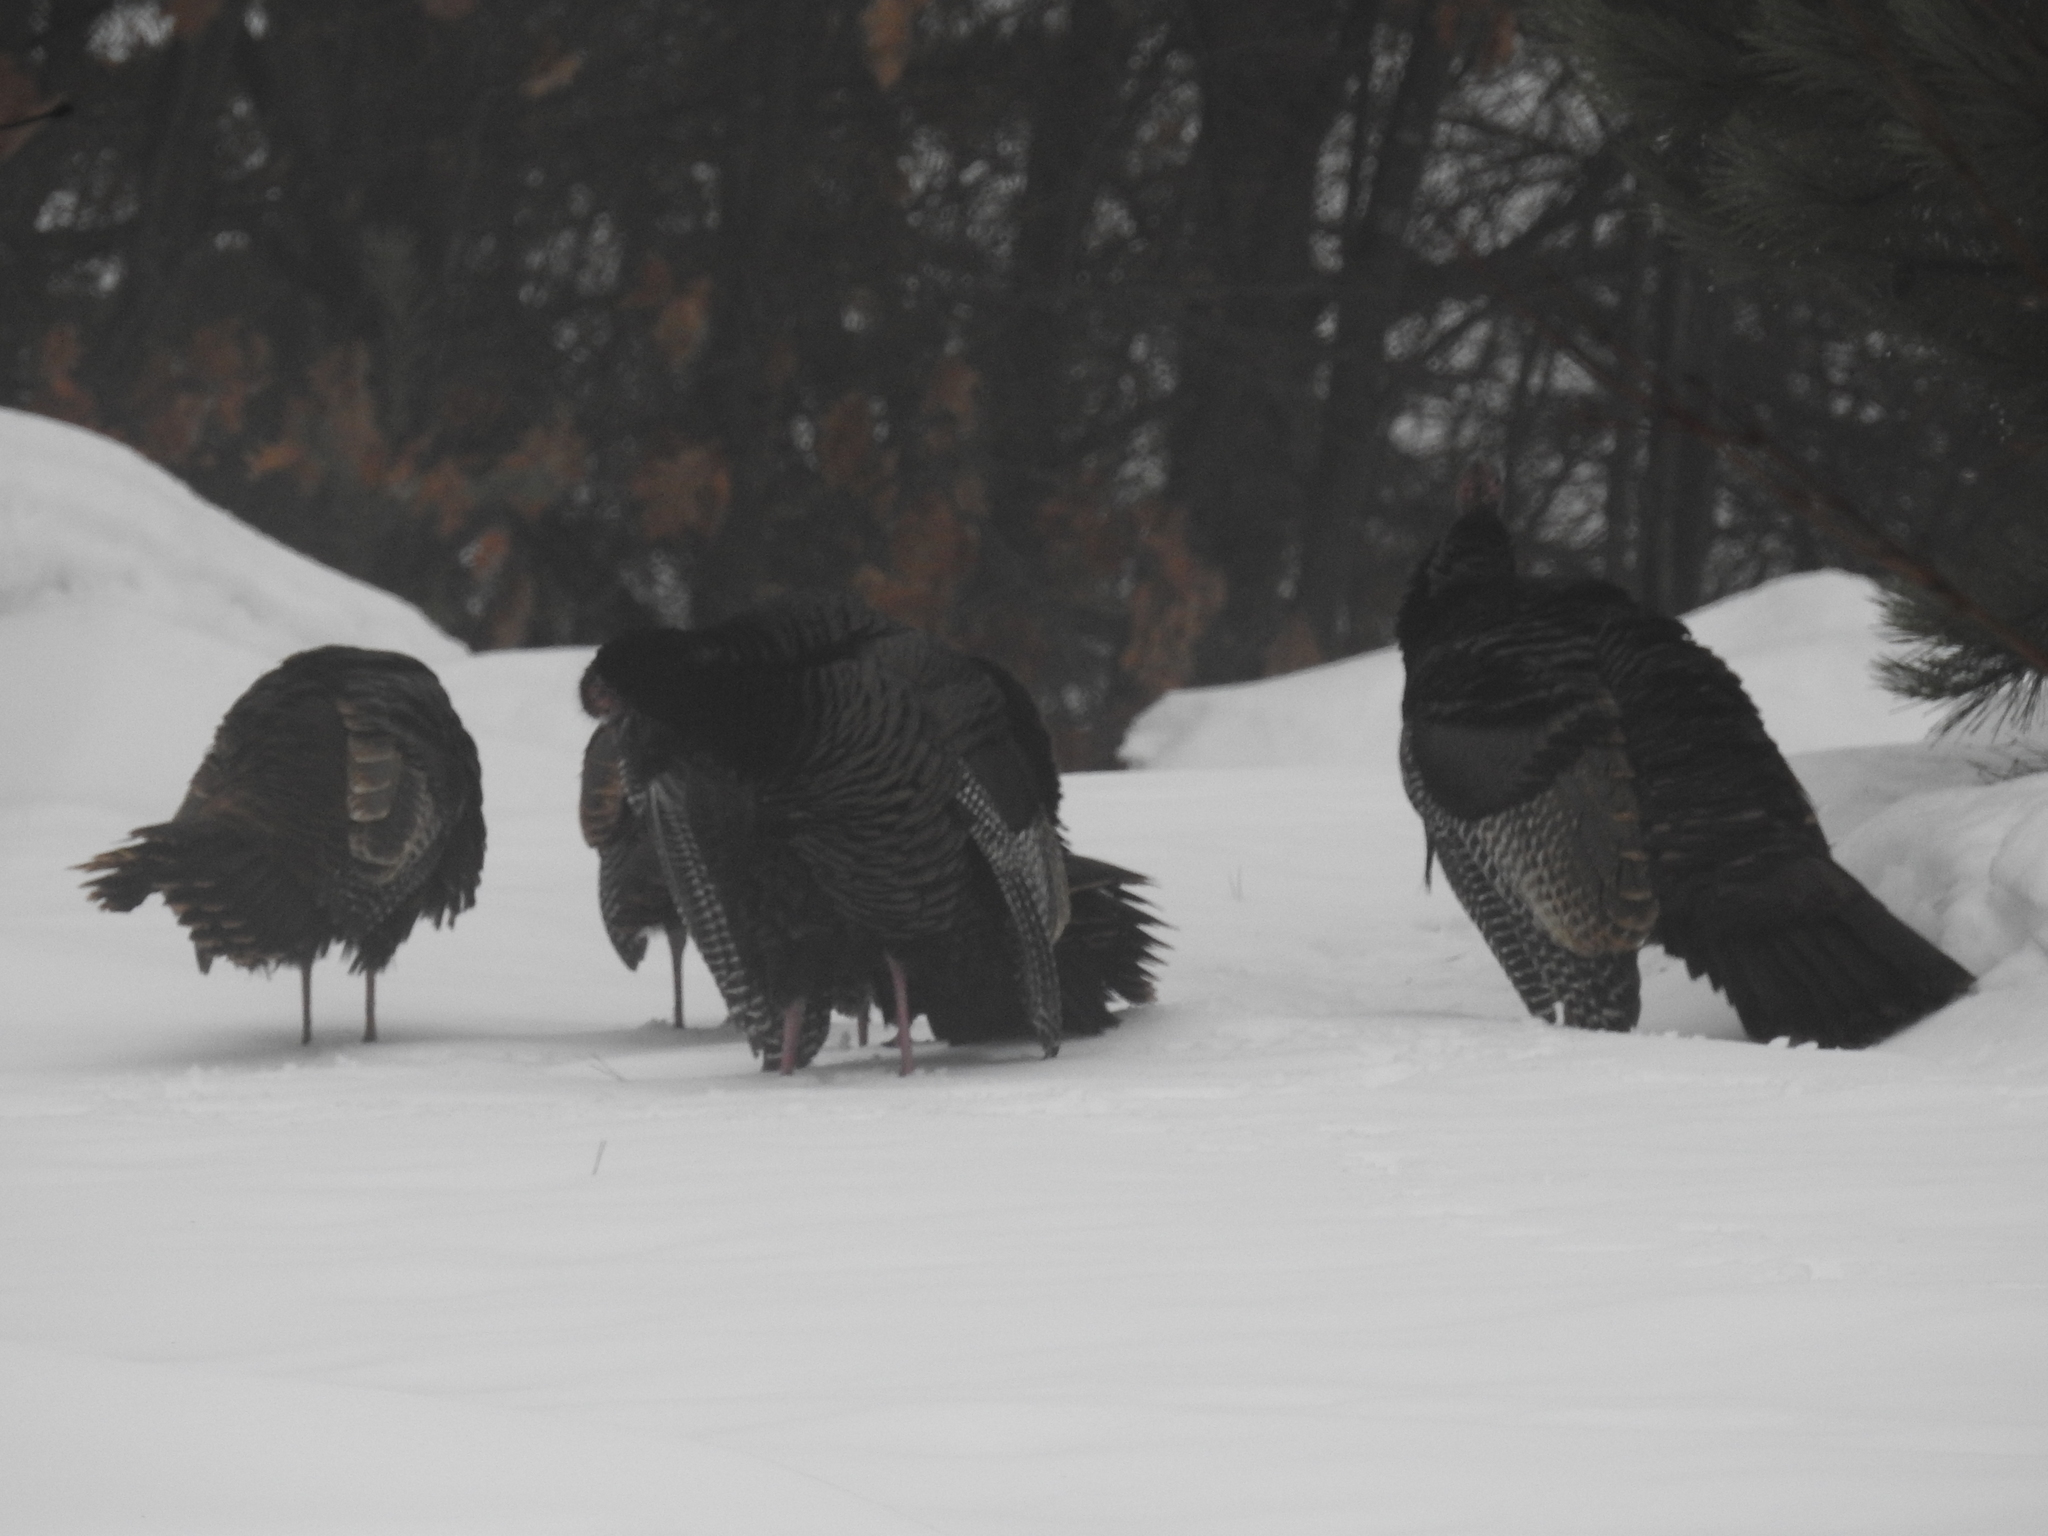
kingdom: Animalia
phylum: Chordata
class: Aves
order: Galliformes
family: Phasianidae
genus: Meleagris
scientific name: Meleagris gallopavo
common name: Wild turkey
